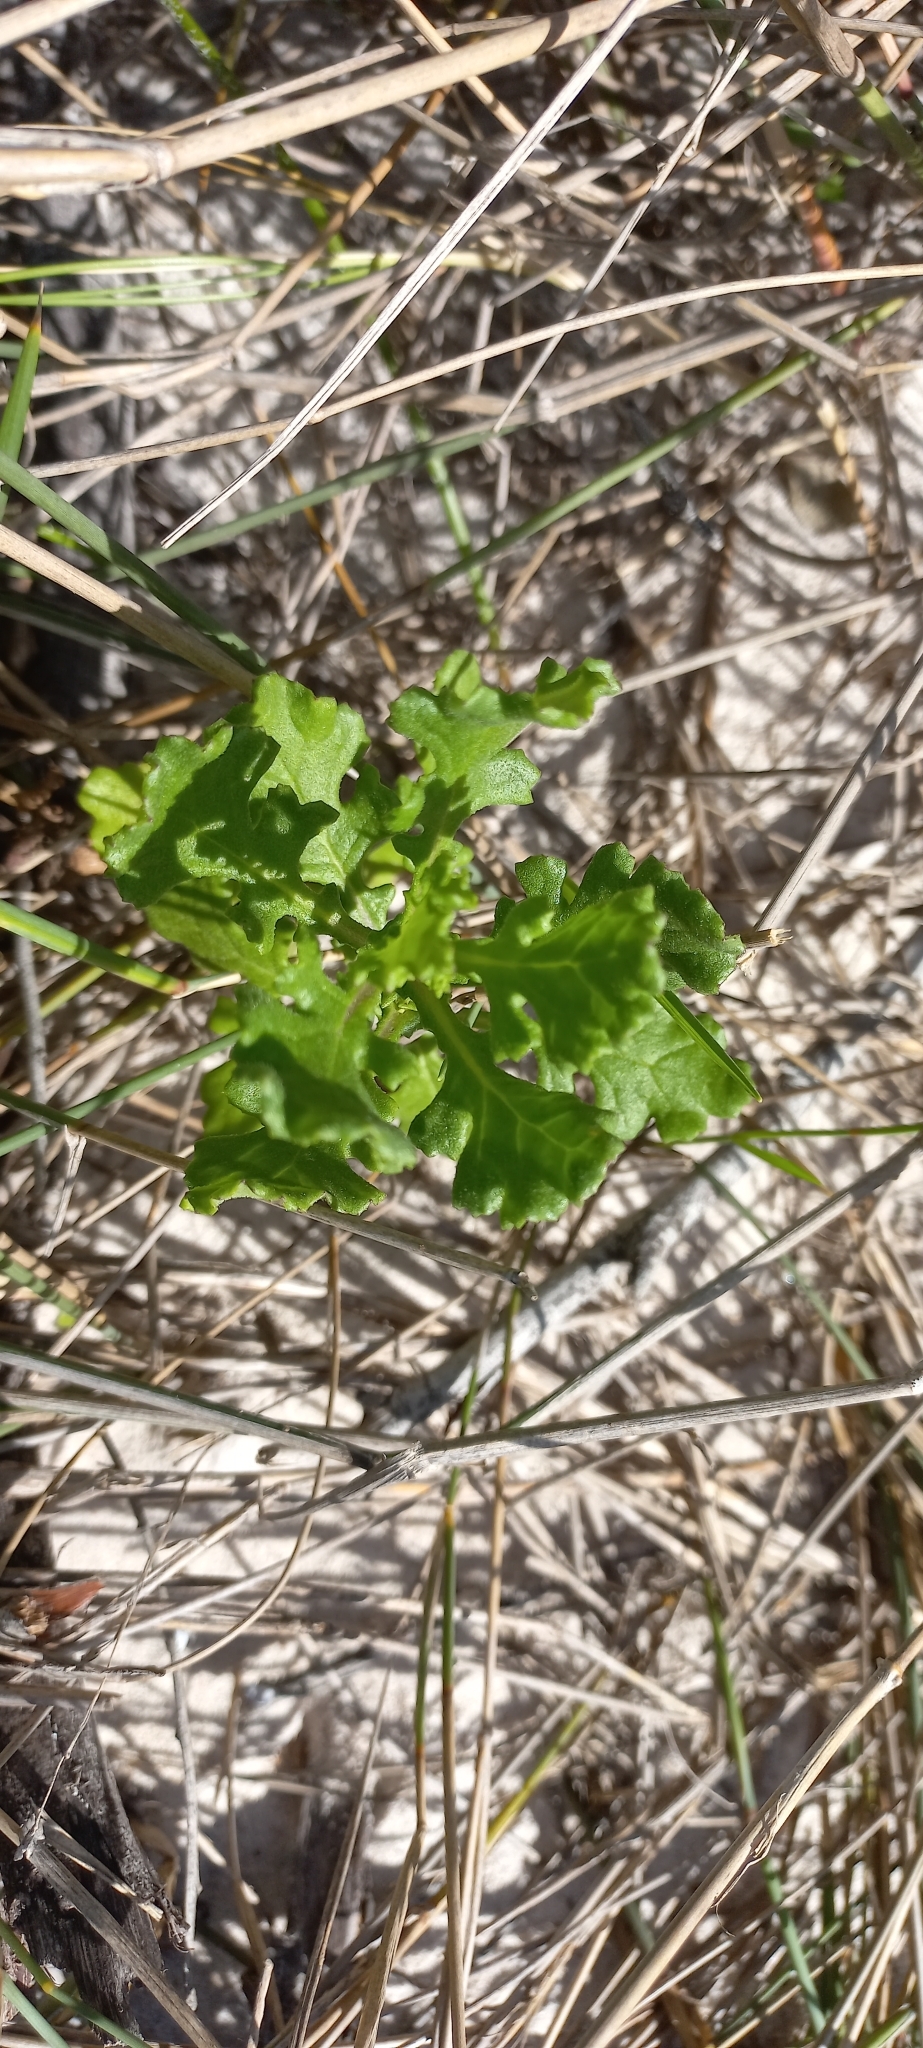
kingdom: Plantae
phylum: Tracheophyta
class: Magnoliopsida
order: Asterales
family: Asteraceae
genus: Senecio
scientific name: Senecio elegans
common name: Purple groundsel
